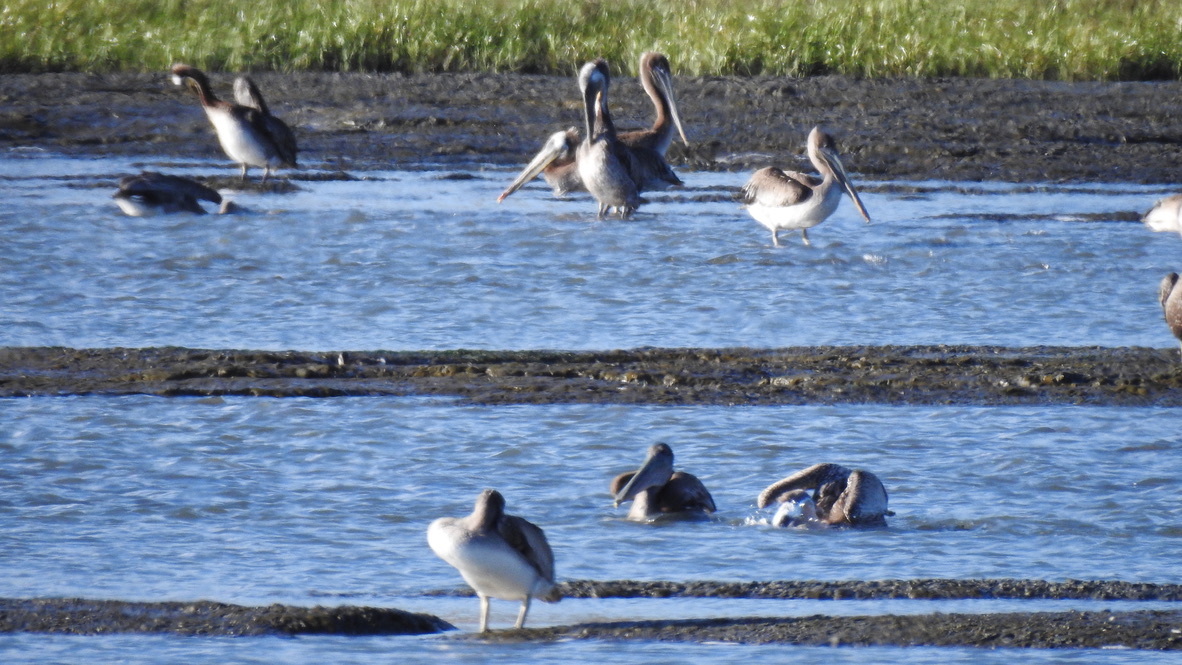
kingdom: Animalia
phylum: Chordata
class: Aves
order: Pelecaniformes
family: Pelecanidae
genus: Pelecanus
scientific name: Pelecanus occidentalis
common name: Brown pelican
